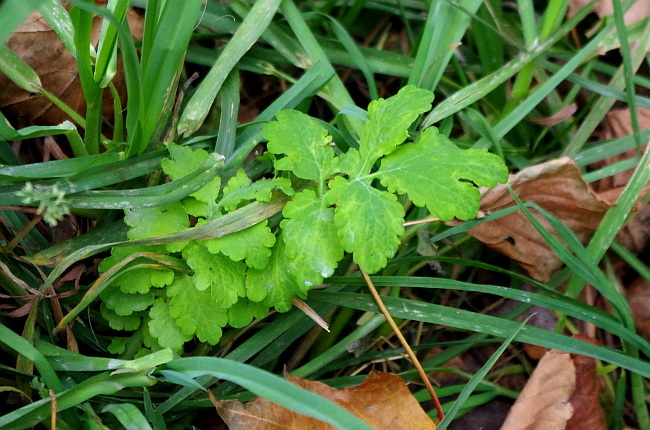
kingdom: Plantae
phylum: Tracheophyta
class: Magnoliopsida
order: Ranunculales
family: Papaveraceae
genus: Chelidonium
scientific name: Chelidonium majus
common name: Greater celandine
